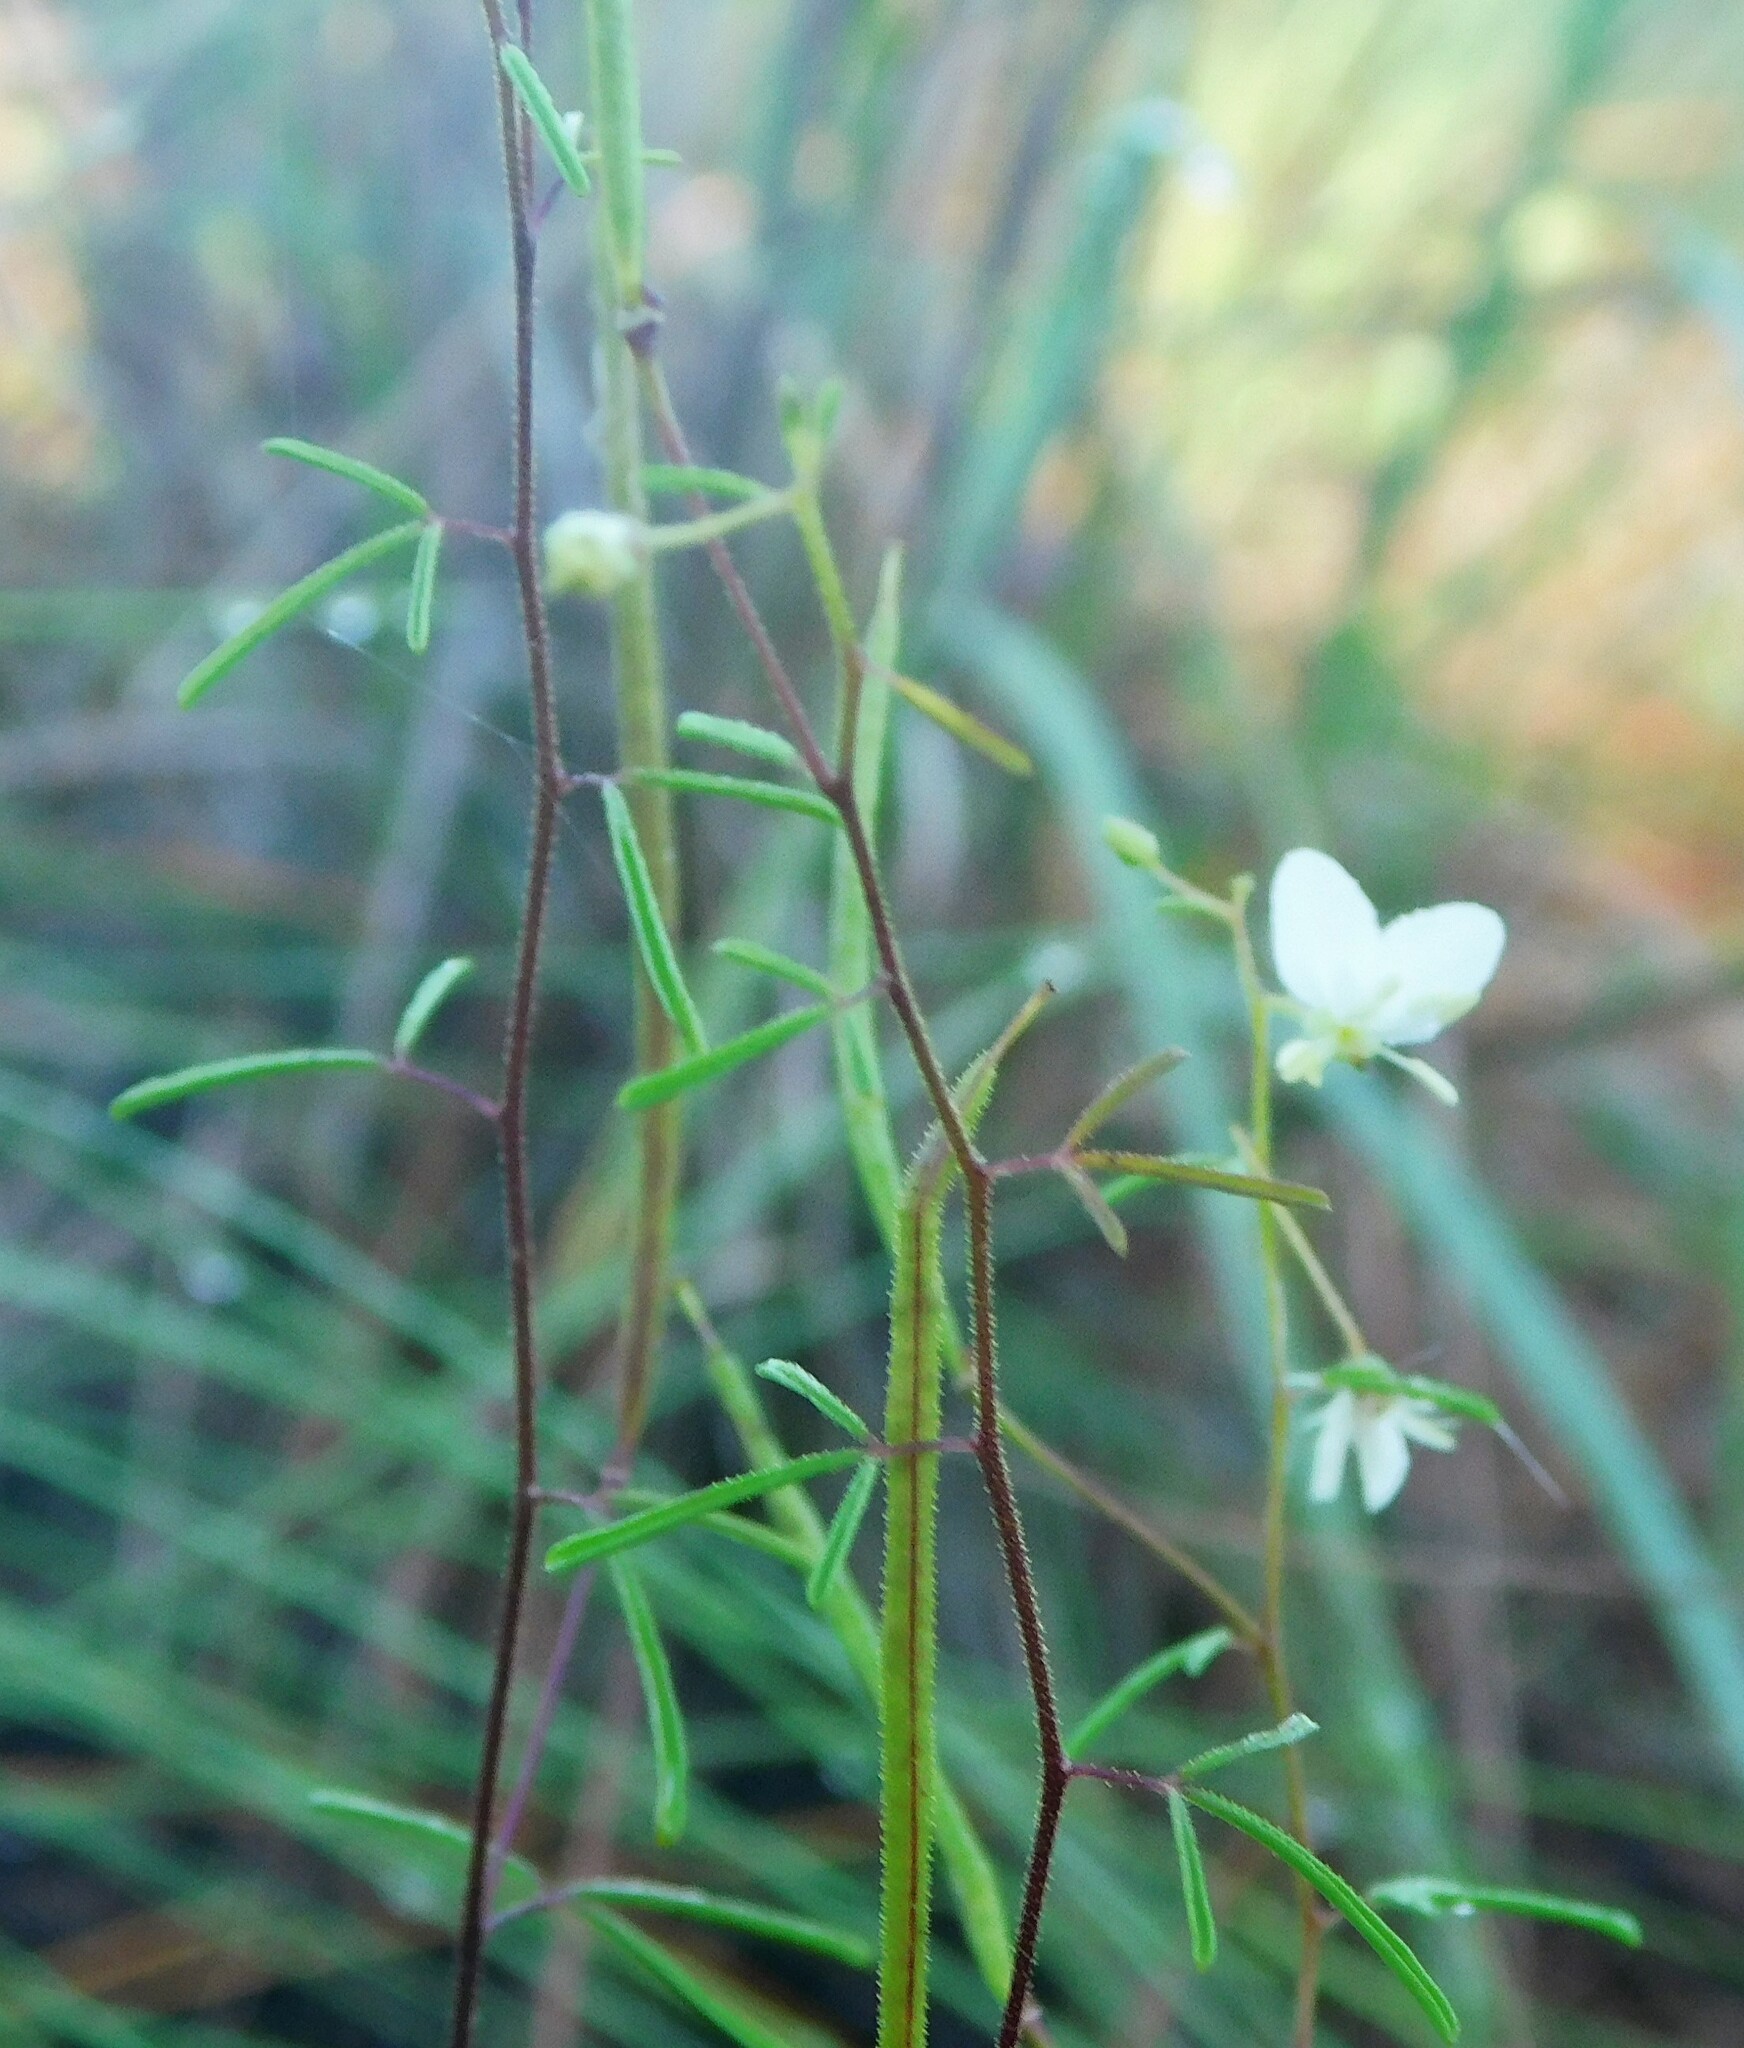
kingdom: Plantae
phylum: Tracheophyta
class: Magnoliopsida
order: Brassicales
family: Cleomaceae
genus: Polanisia
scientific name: Polanisia tenuifolia
